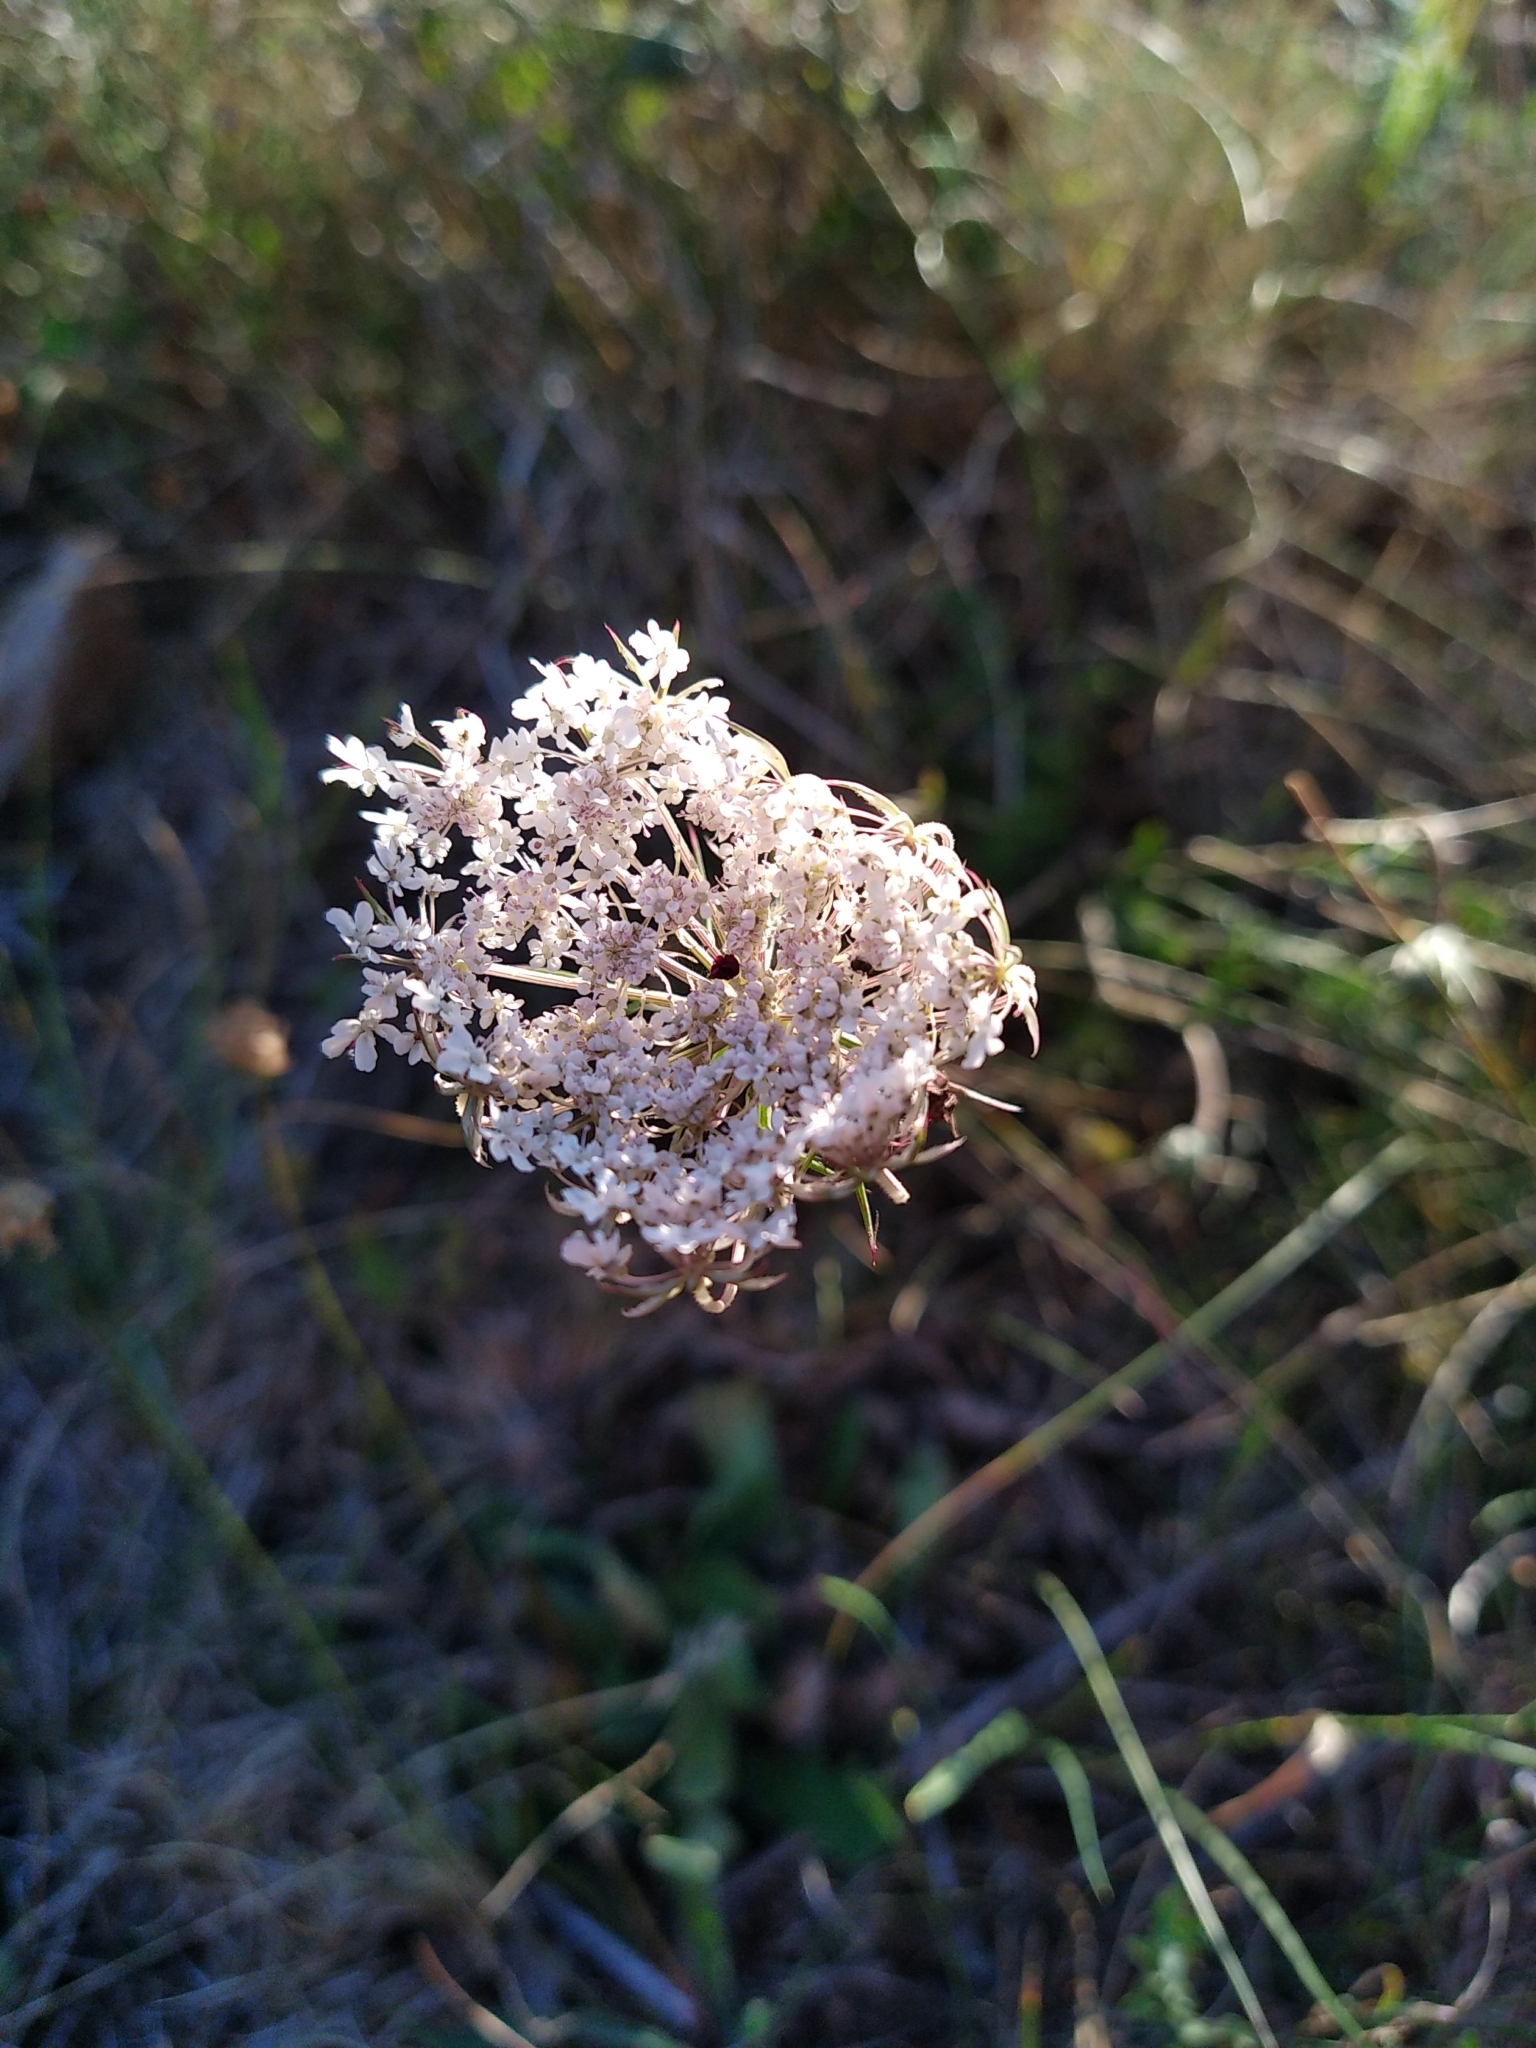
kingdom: Plantae
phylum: Tracheophyta
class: Magnoliopsida
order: Apiales
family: Apiaceae
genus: Daucus
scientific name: Daucus carota
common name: Wild carrot
